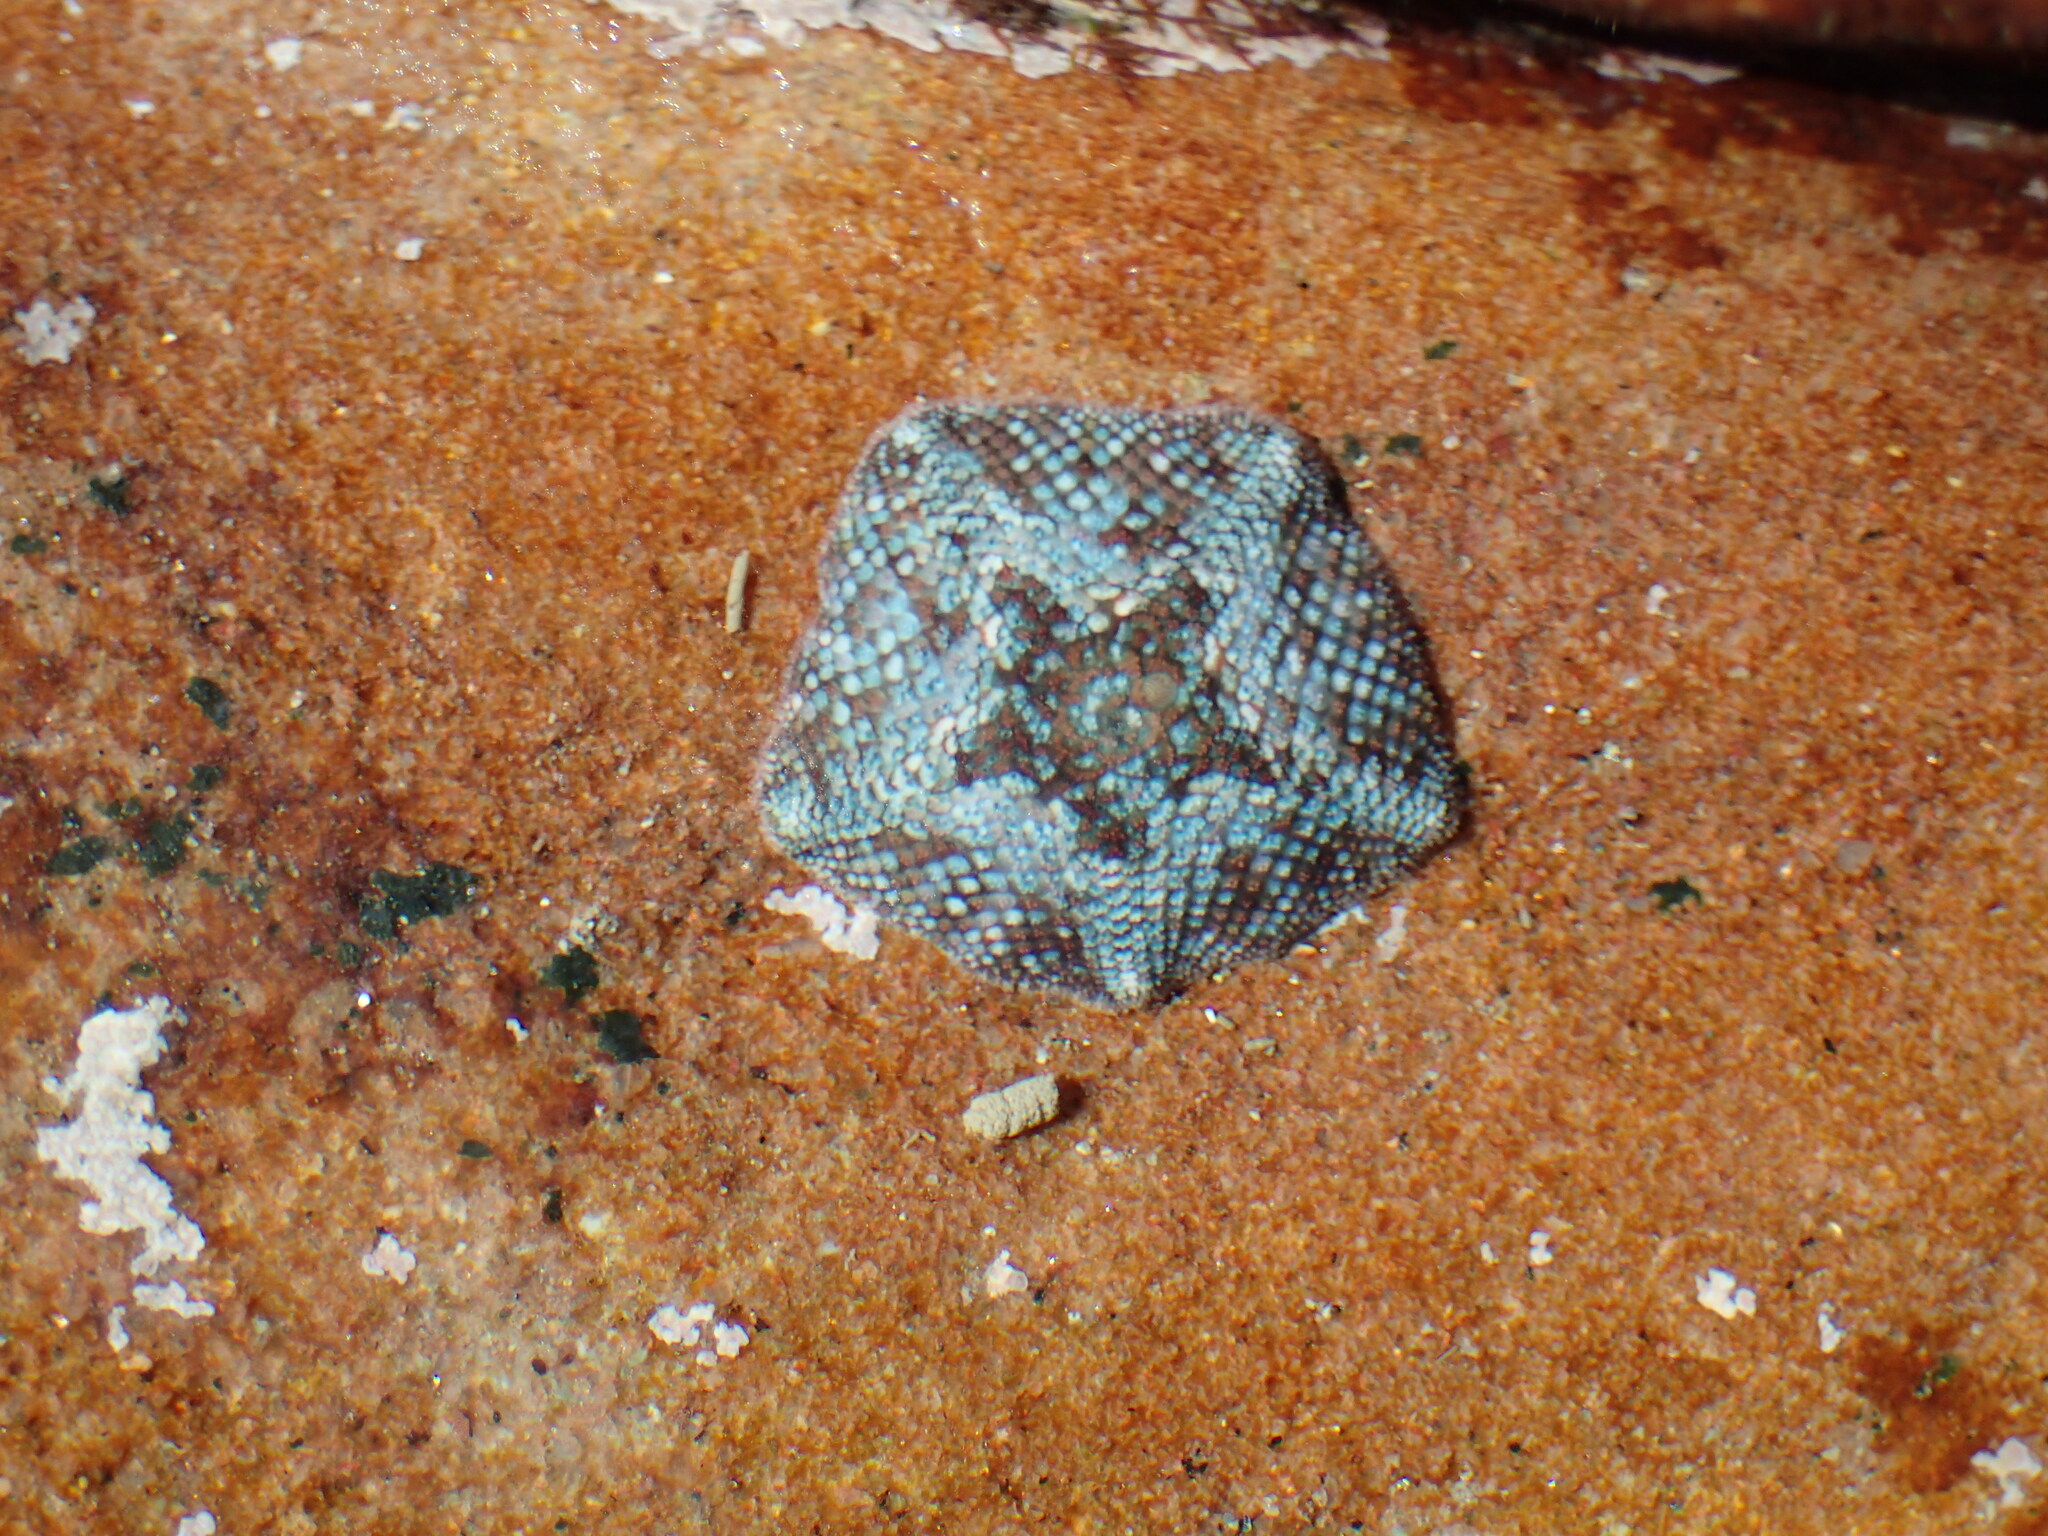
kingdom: Animalia
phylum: Echinodermata
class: Asteroidea
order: Valvatida
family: Asterinidae
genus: Parvulastra
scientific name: Parvulastra exigua
